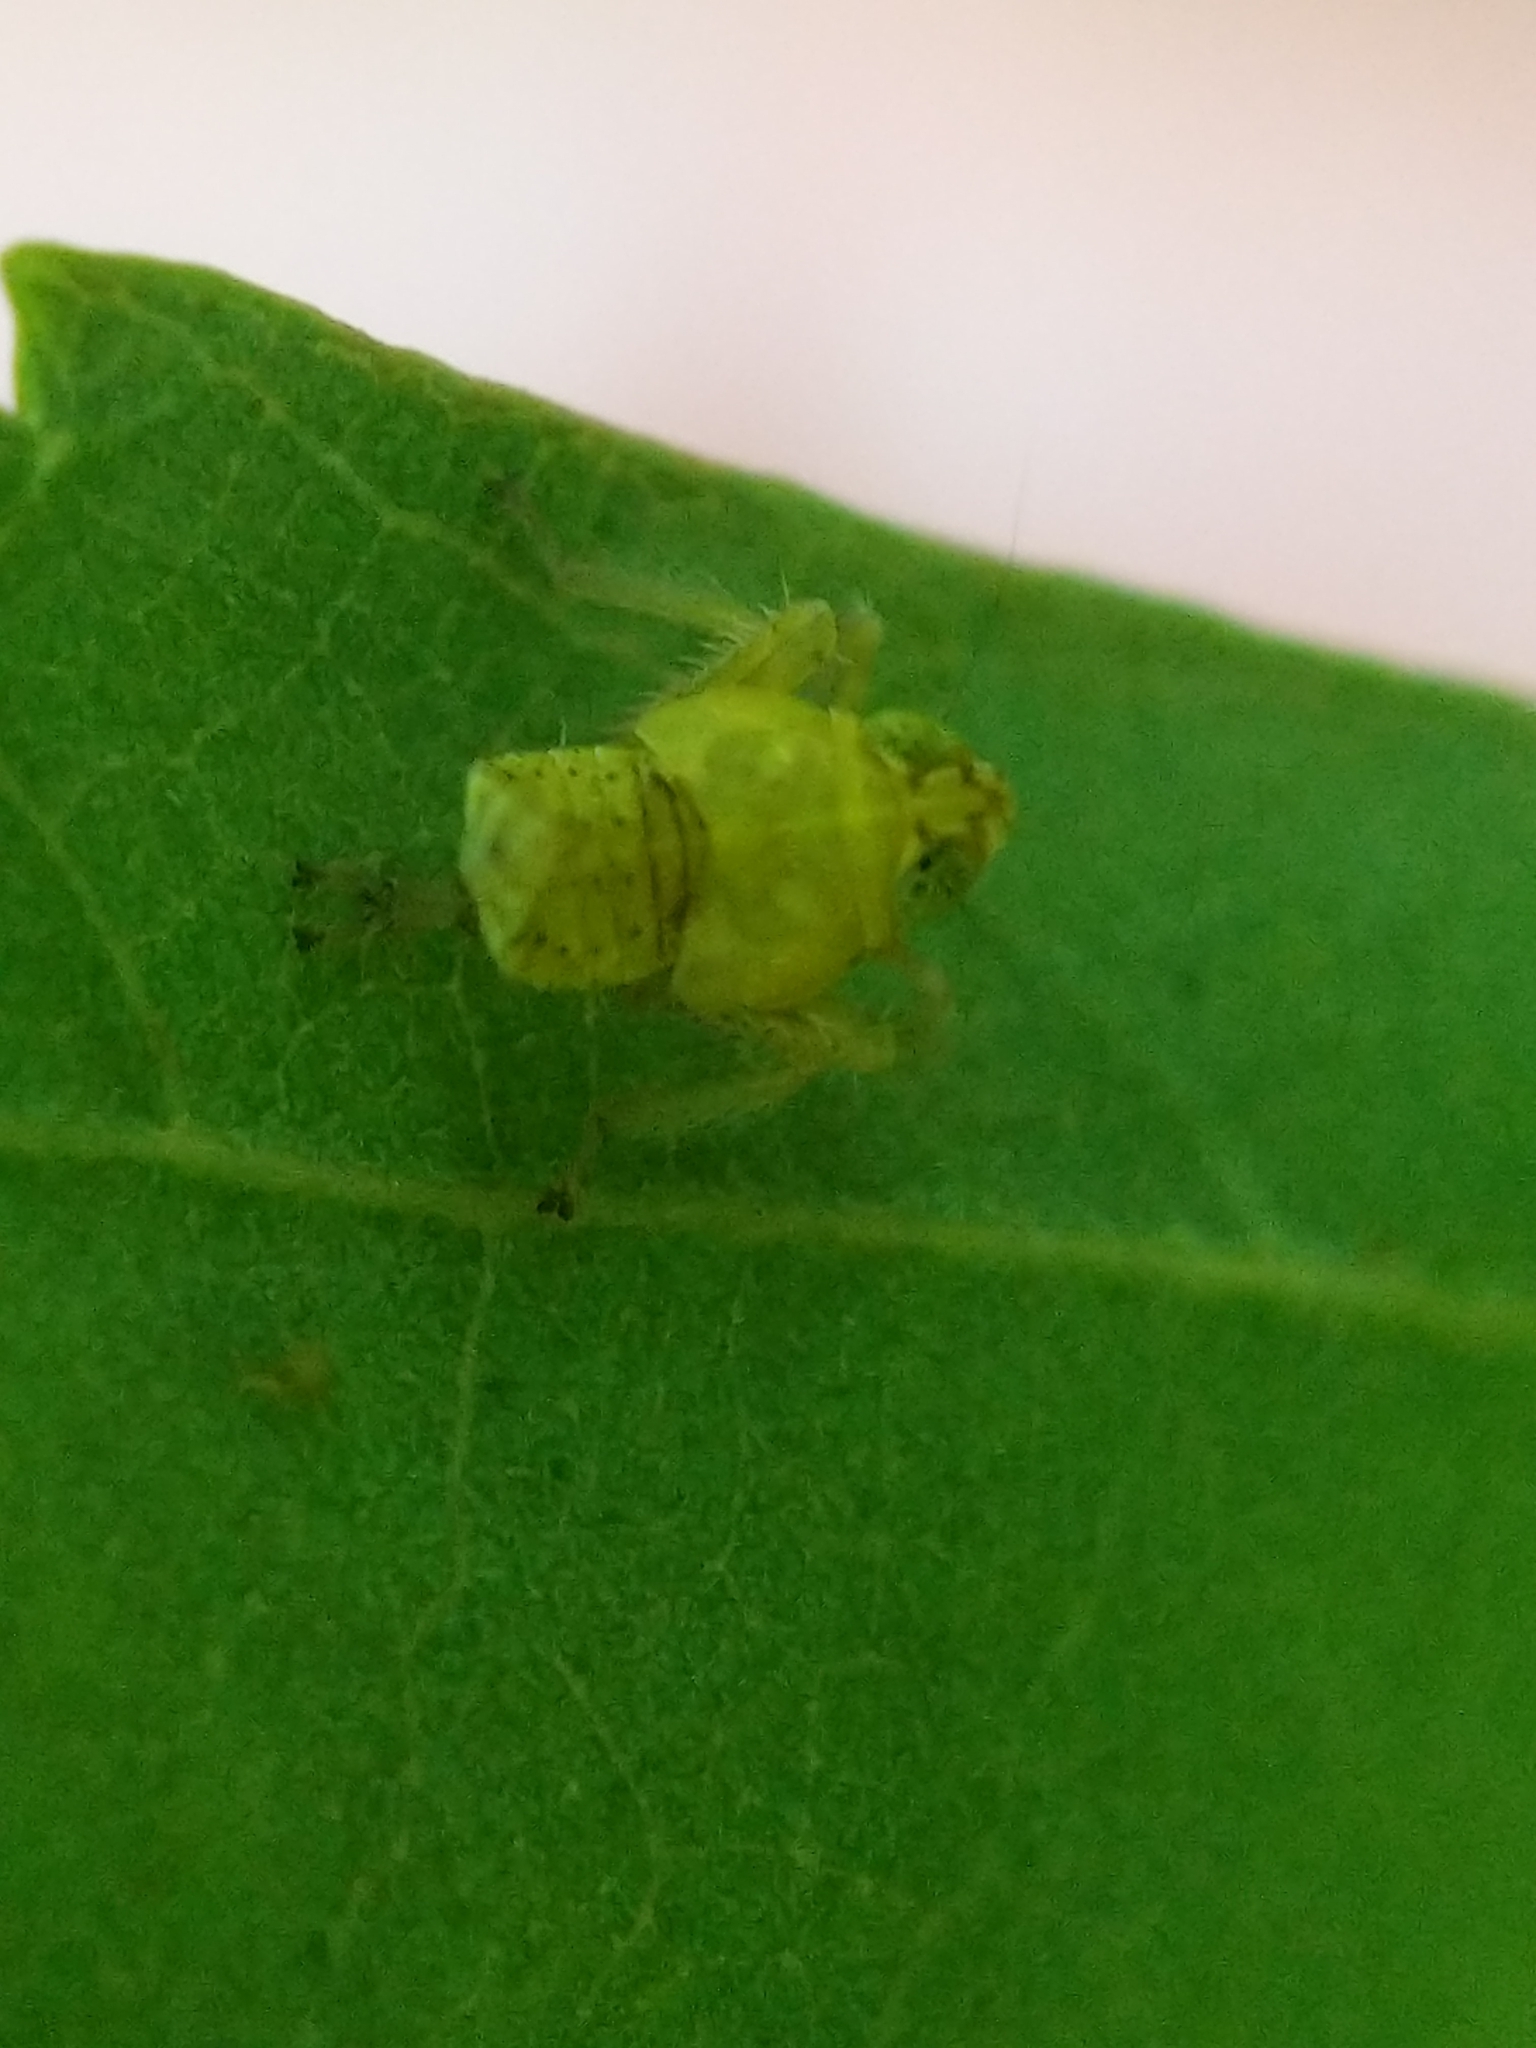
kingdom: Animalia
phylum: Arthropoda
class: Insecta
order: Hemiptera
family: Cicadellidae
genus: Jikradia
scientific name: Jikradia olitoria
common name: Coppery leafhopper
